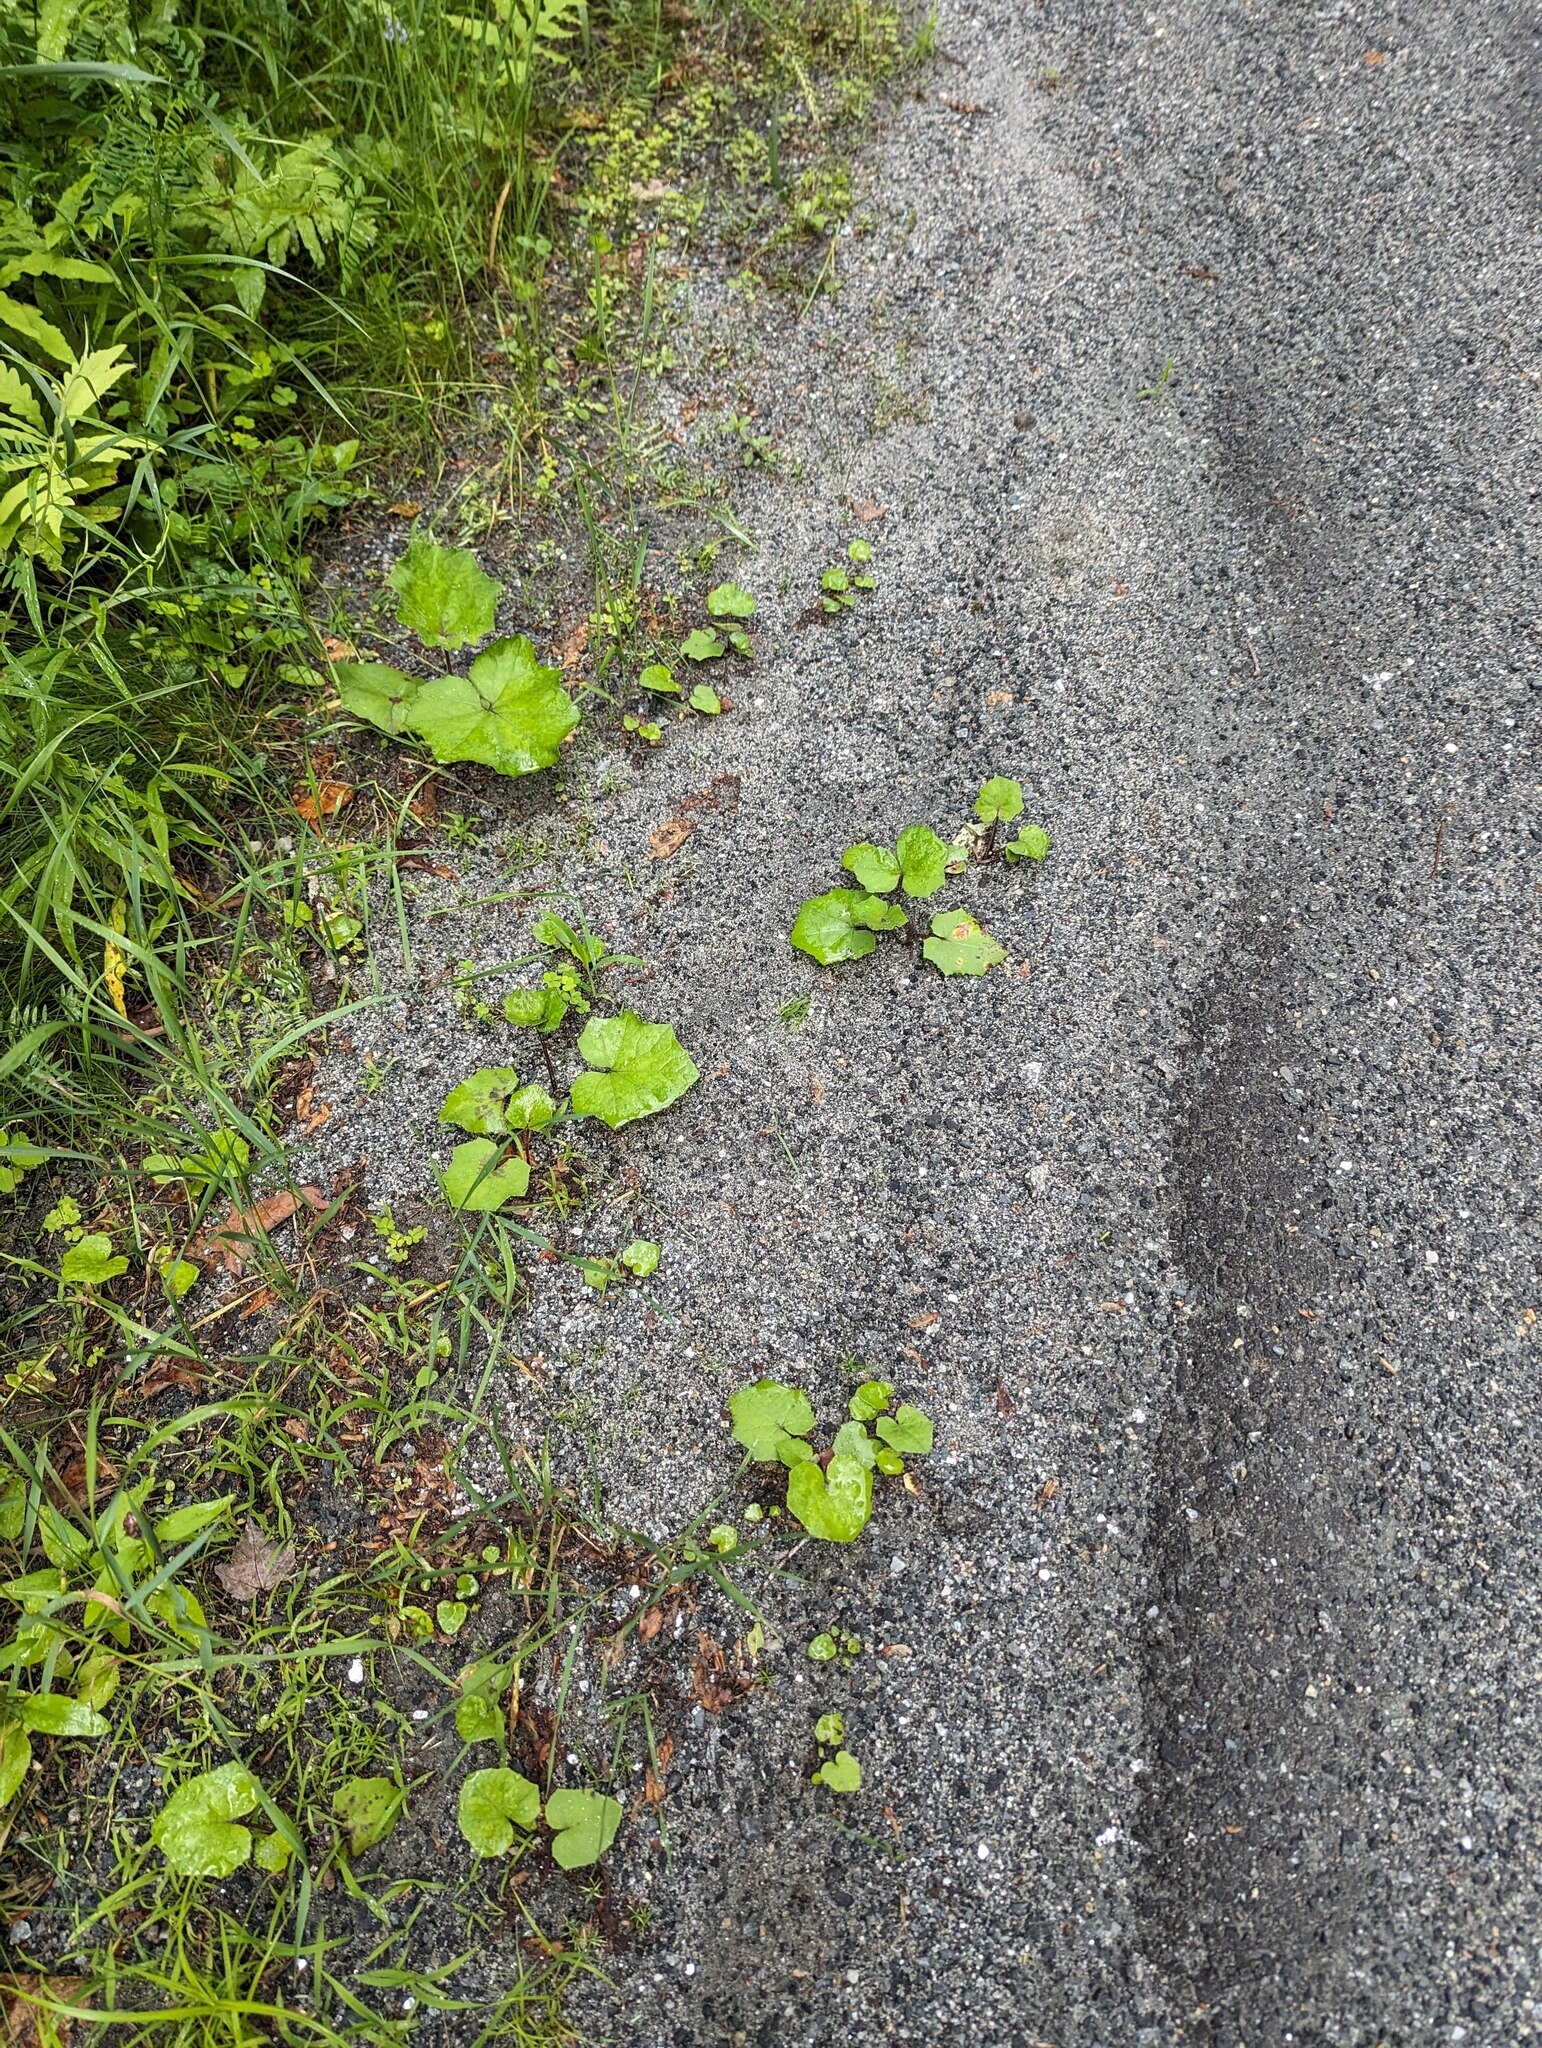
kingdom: Plantae
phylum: Tracheophyta
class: Magnoliopsida
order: Asterales
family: Asteraceae
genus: Tussilago
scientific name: Tussilago farfara
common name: Coltsfoot
